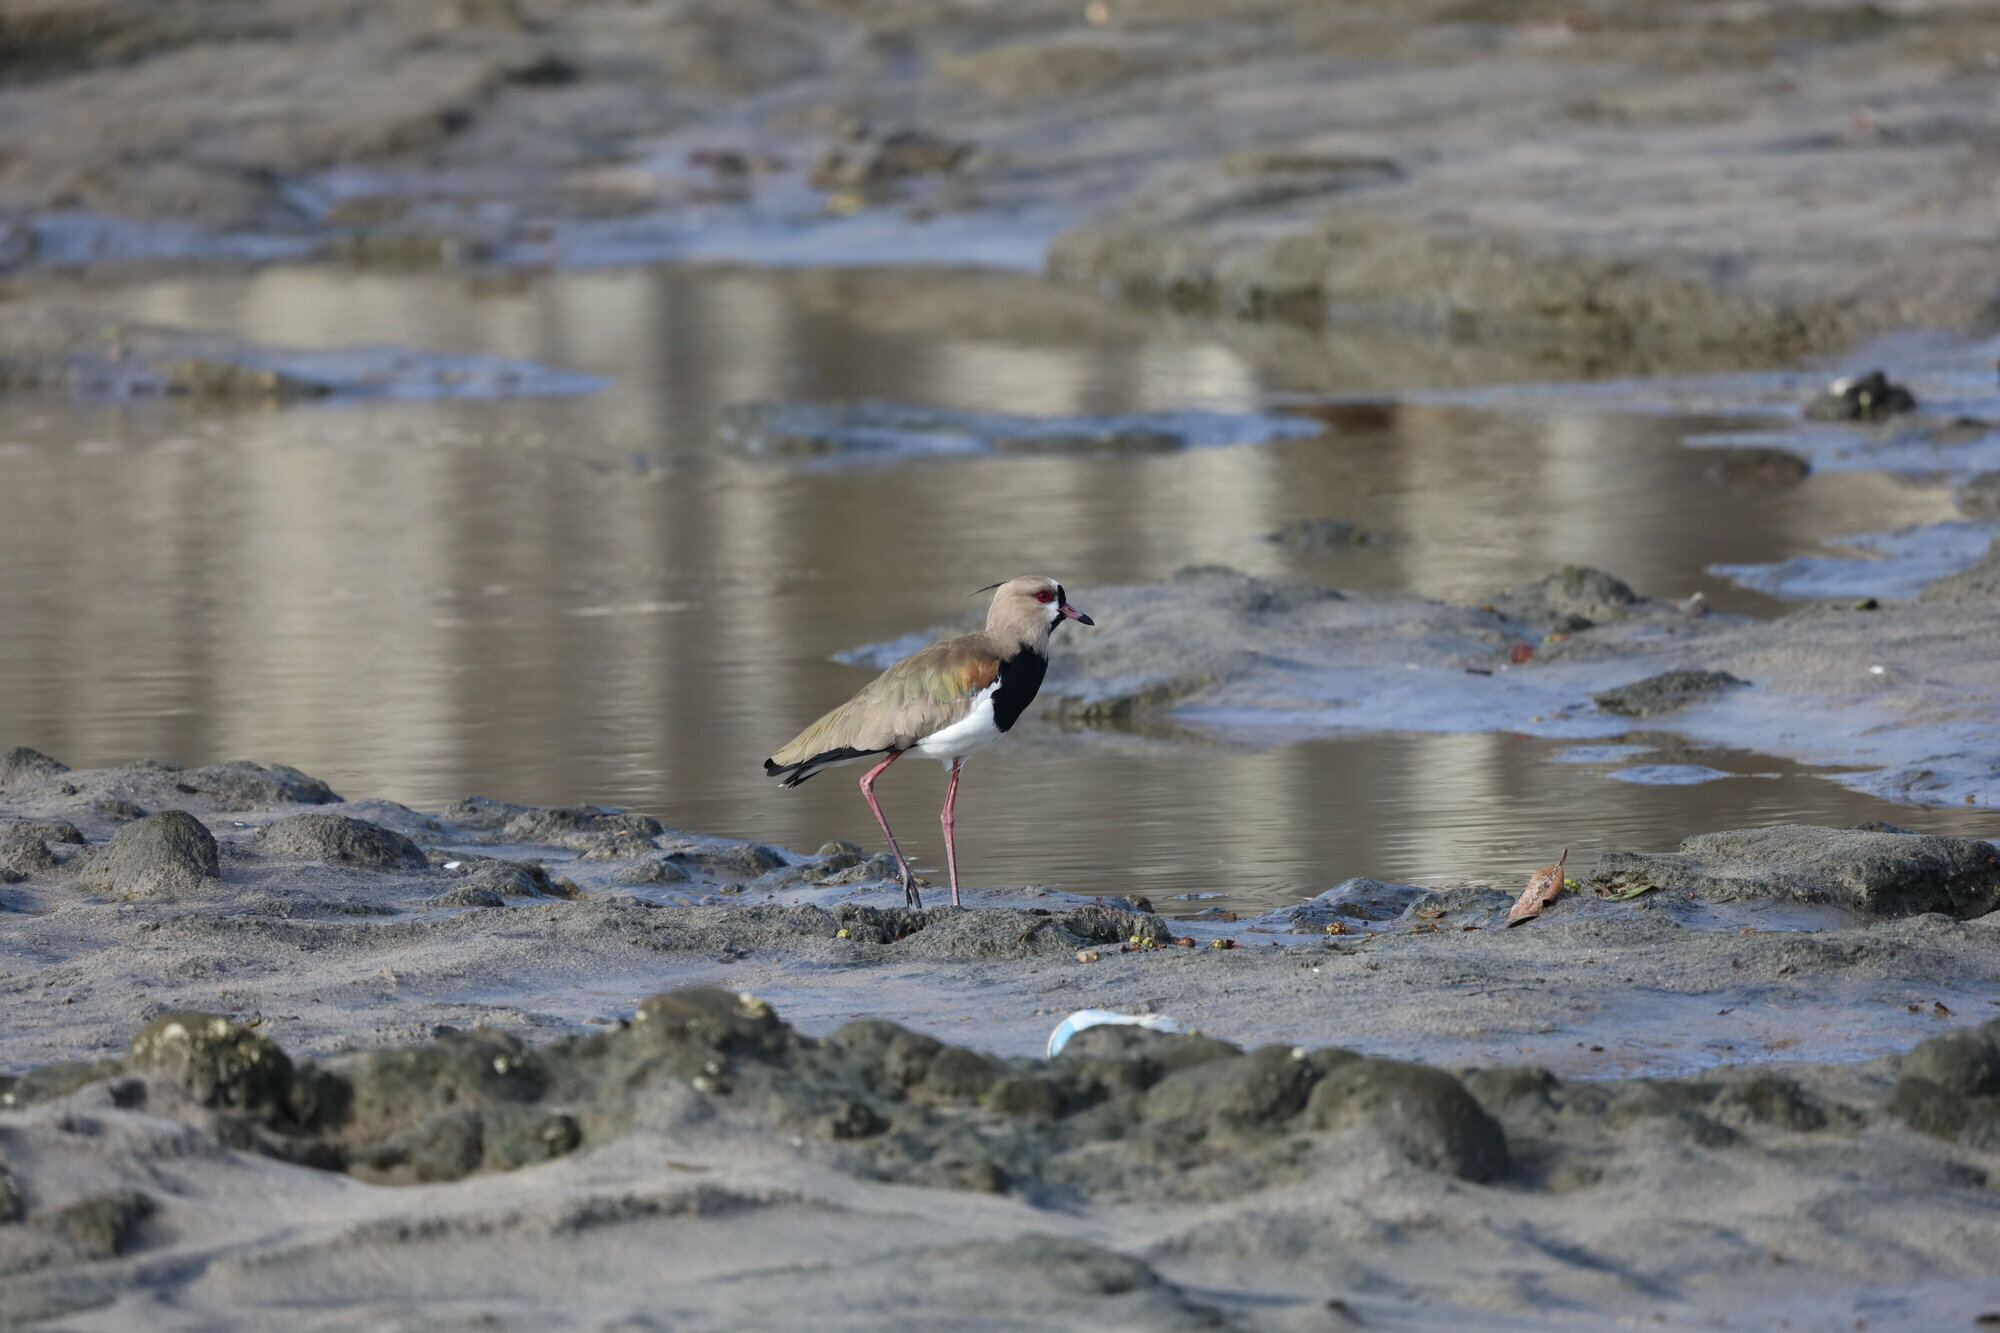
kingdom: Animalia
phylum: Chordata
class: Aves
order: Charadriiformes
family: Charadriidae
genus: Vanellus
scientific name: Vanellus chilensis
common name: Southern lapwing
